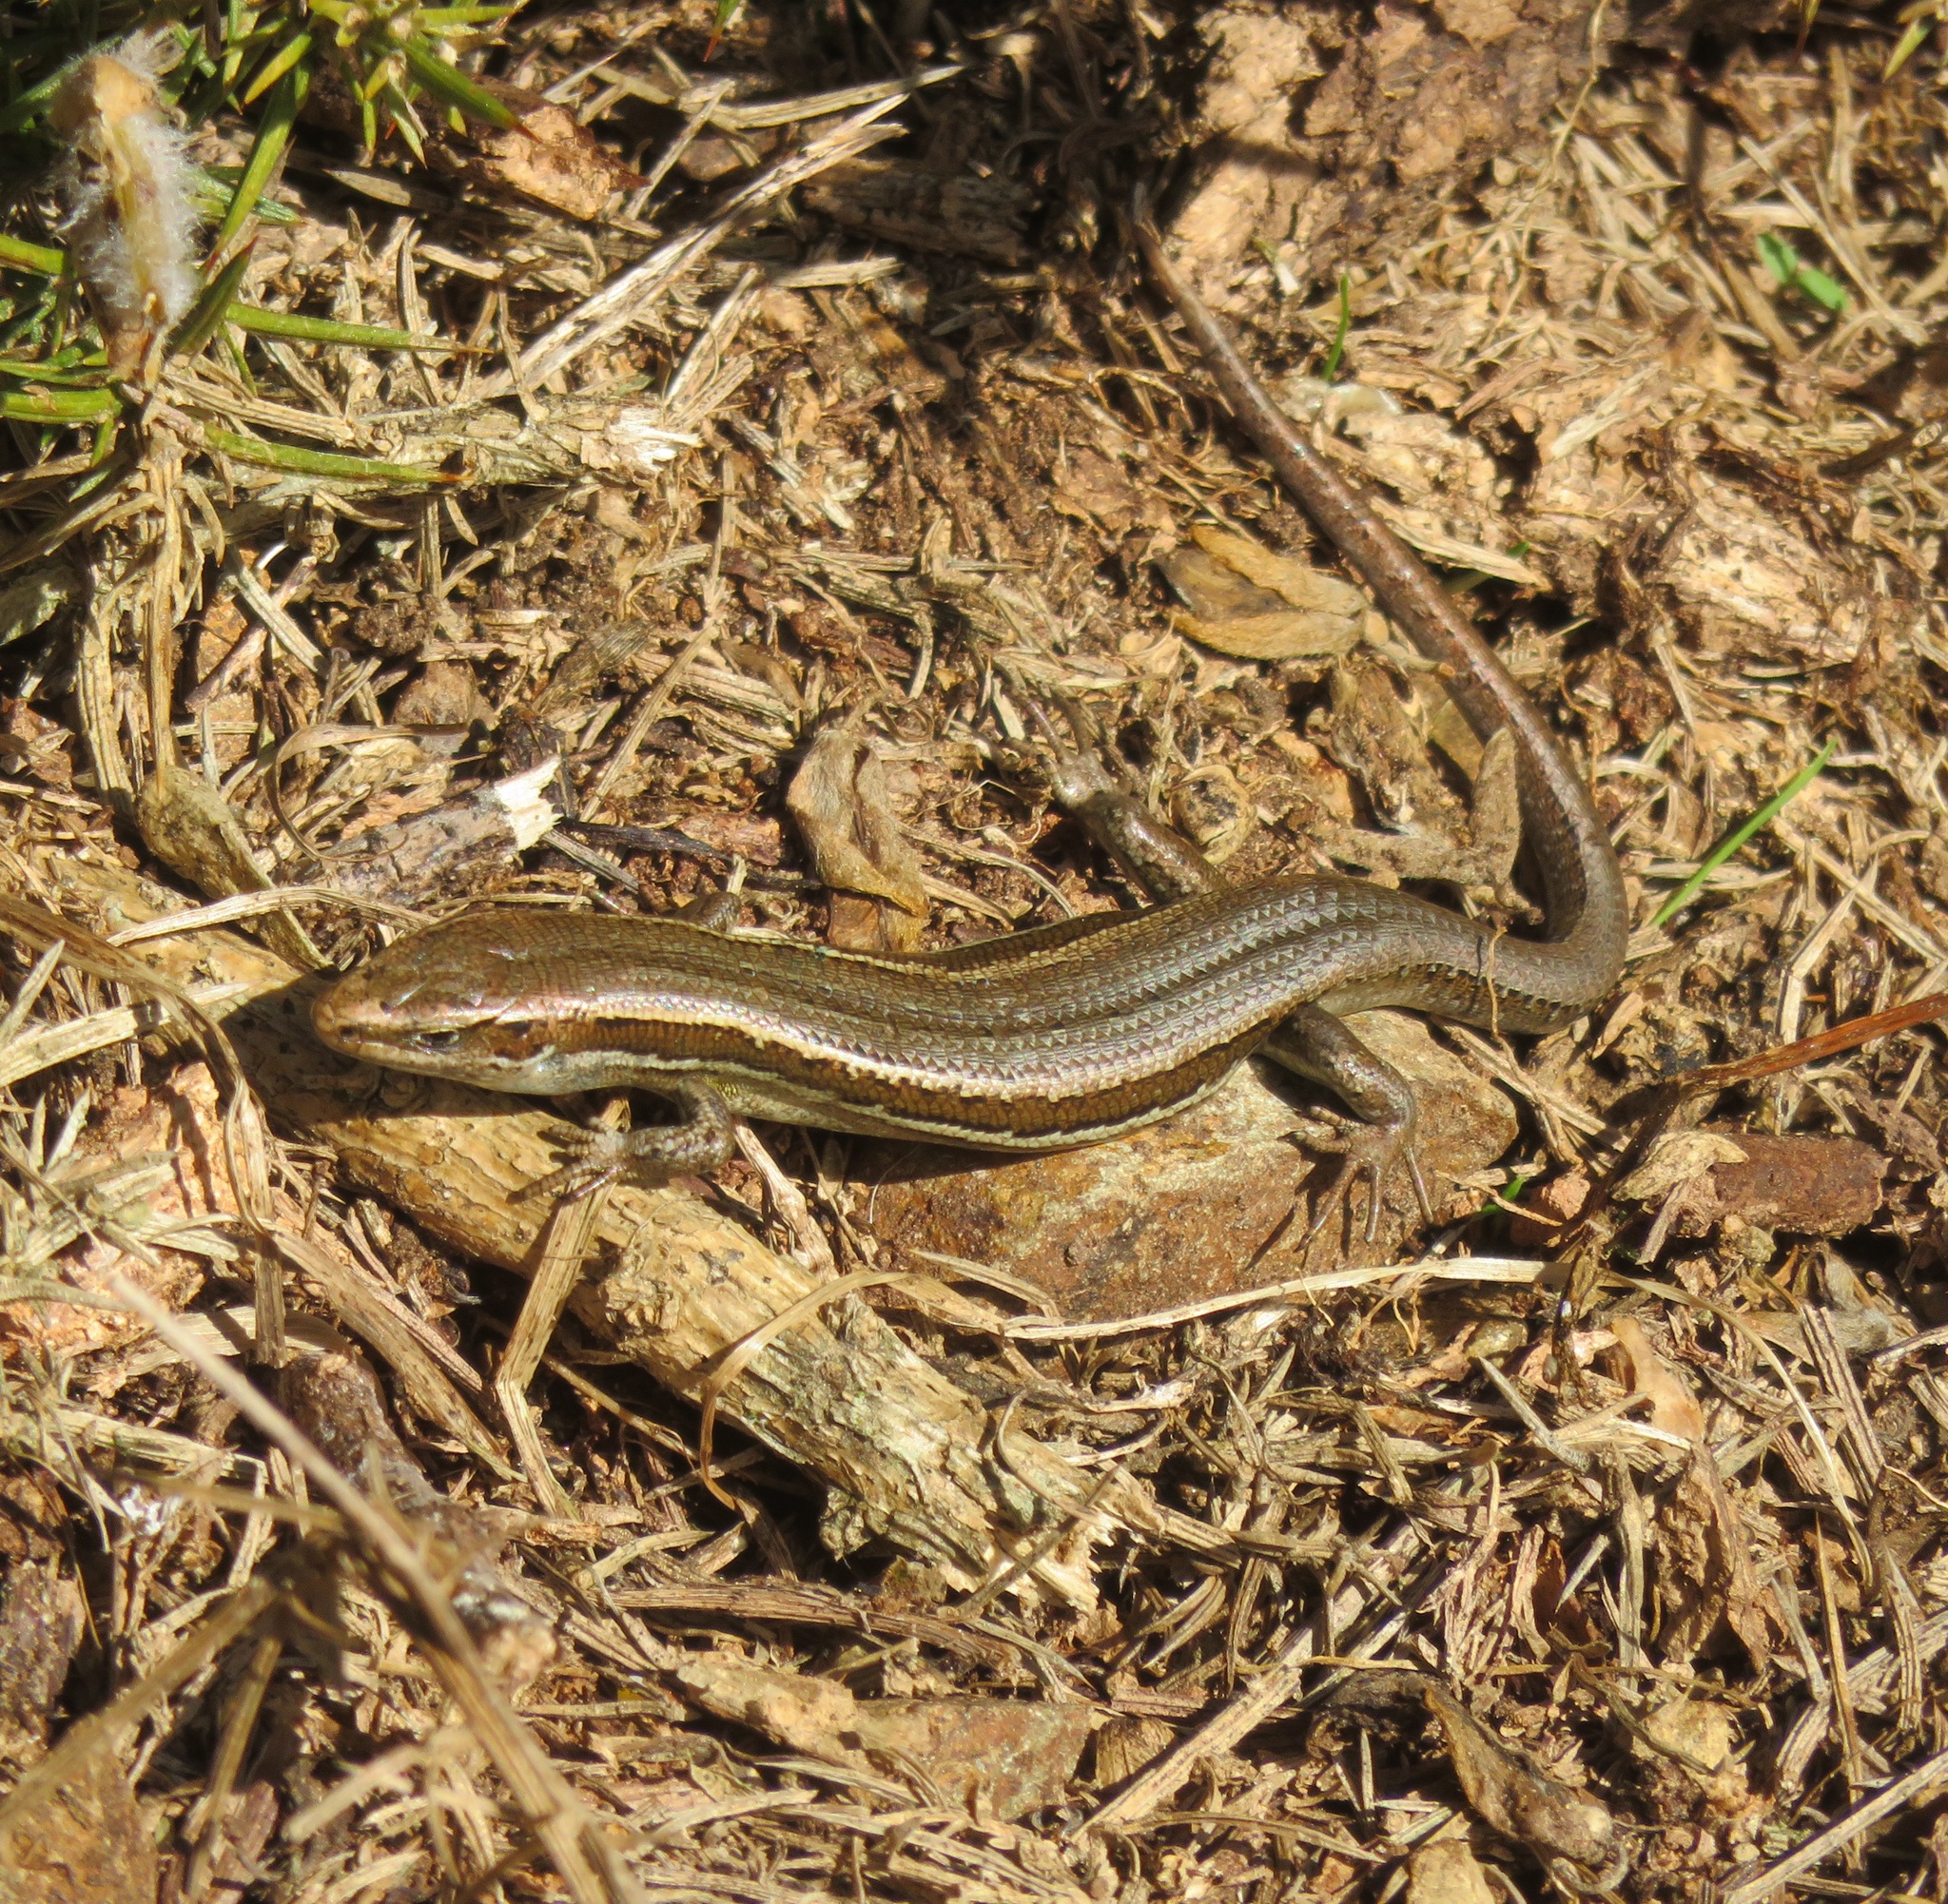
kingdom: Animalia
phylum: Chordata
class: Squamata
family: Scincidae
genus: Oligosoma
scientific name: Oligosoma polychroma
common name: Common new zealand skink
